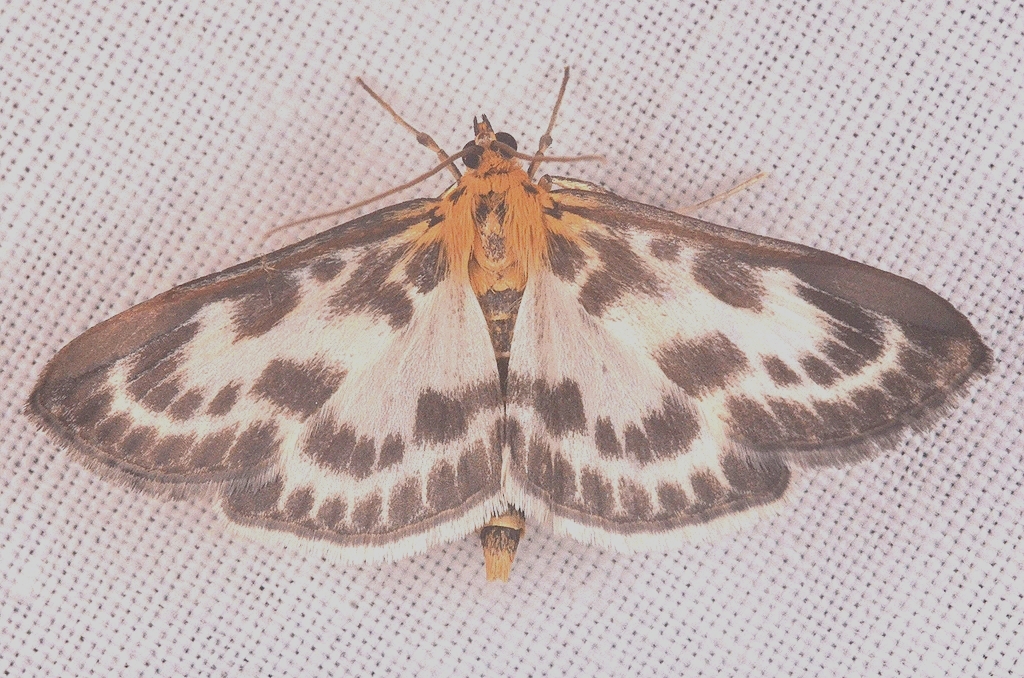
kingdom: Animalia
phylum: Arthropoda
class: Insecta
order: Lepidoptera
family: Crambidae
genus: Anania
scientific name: Anania hortulata
